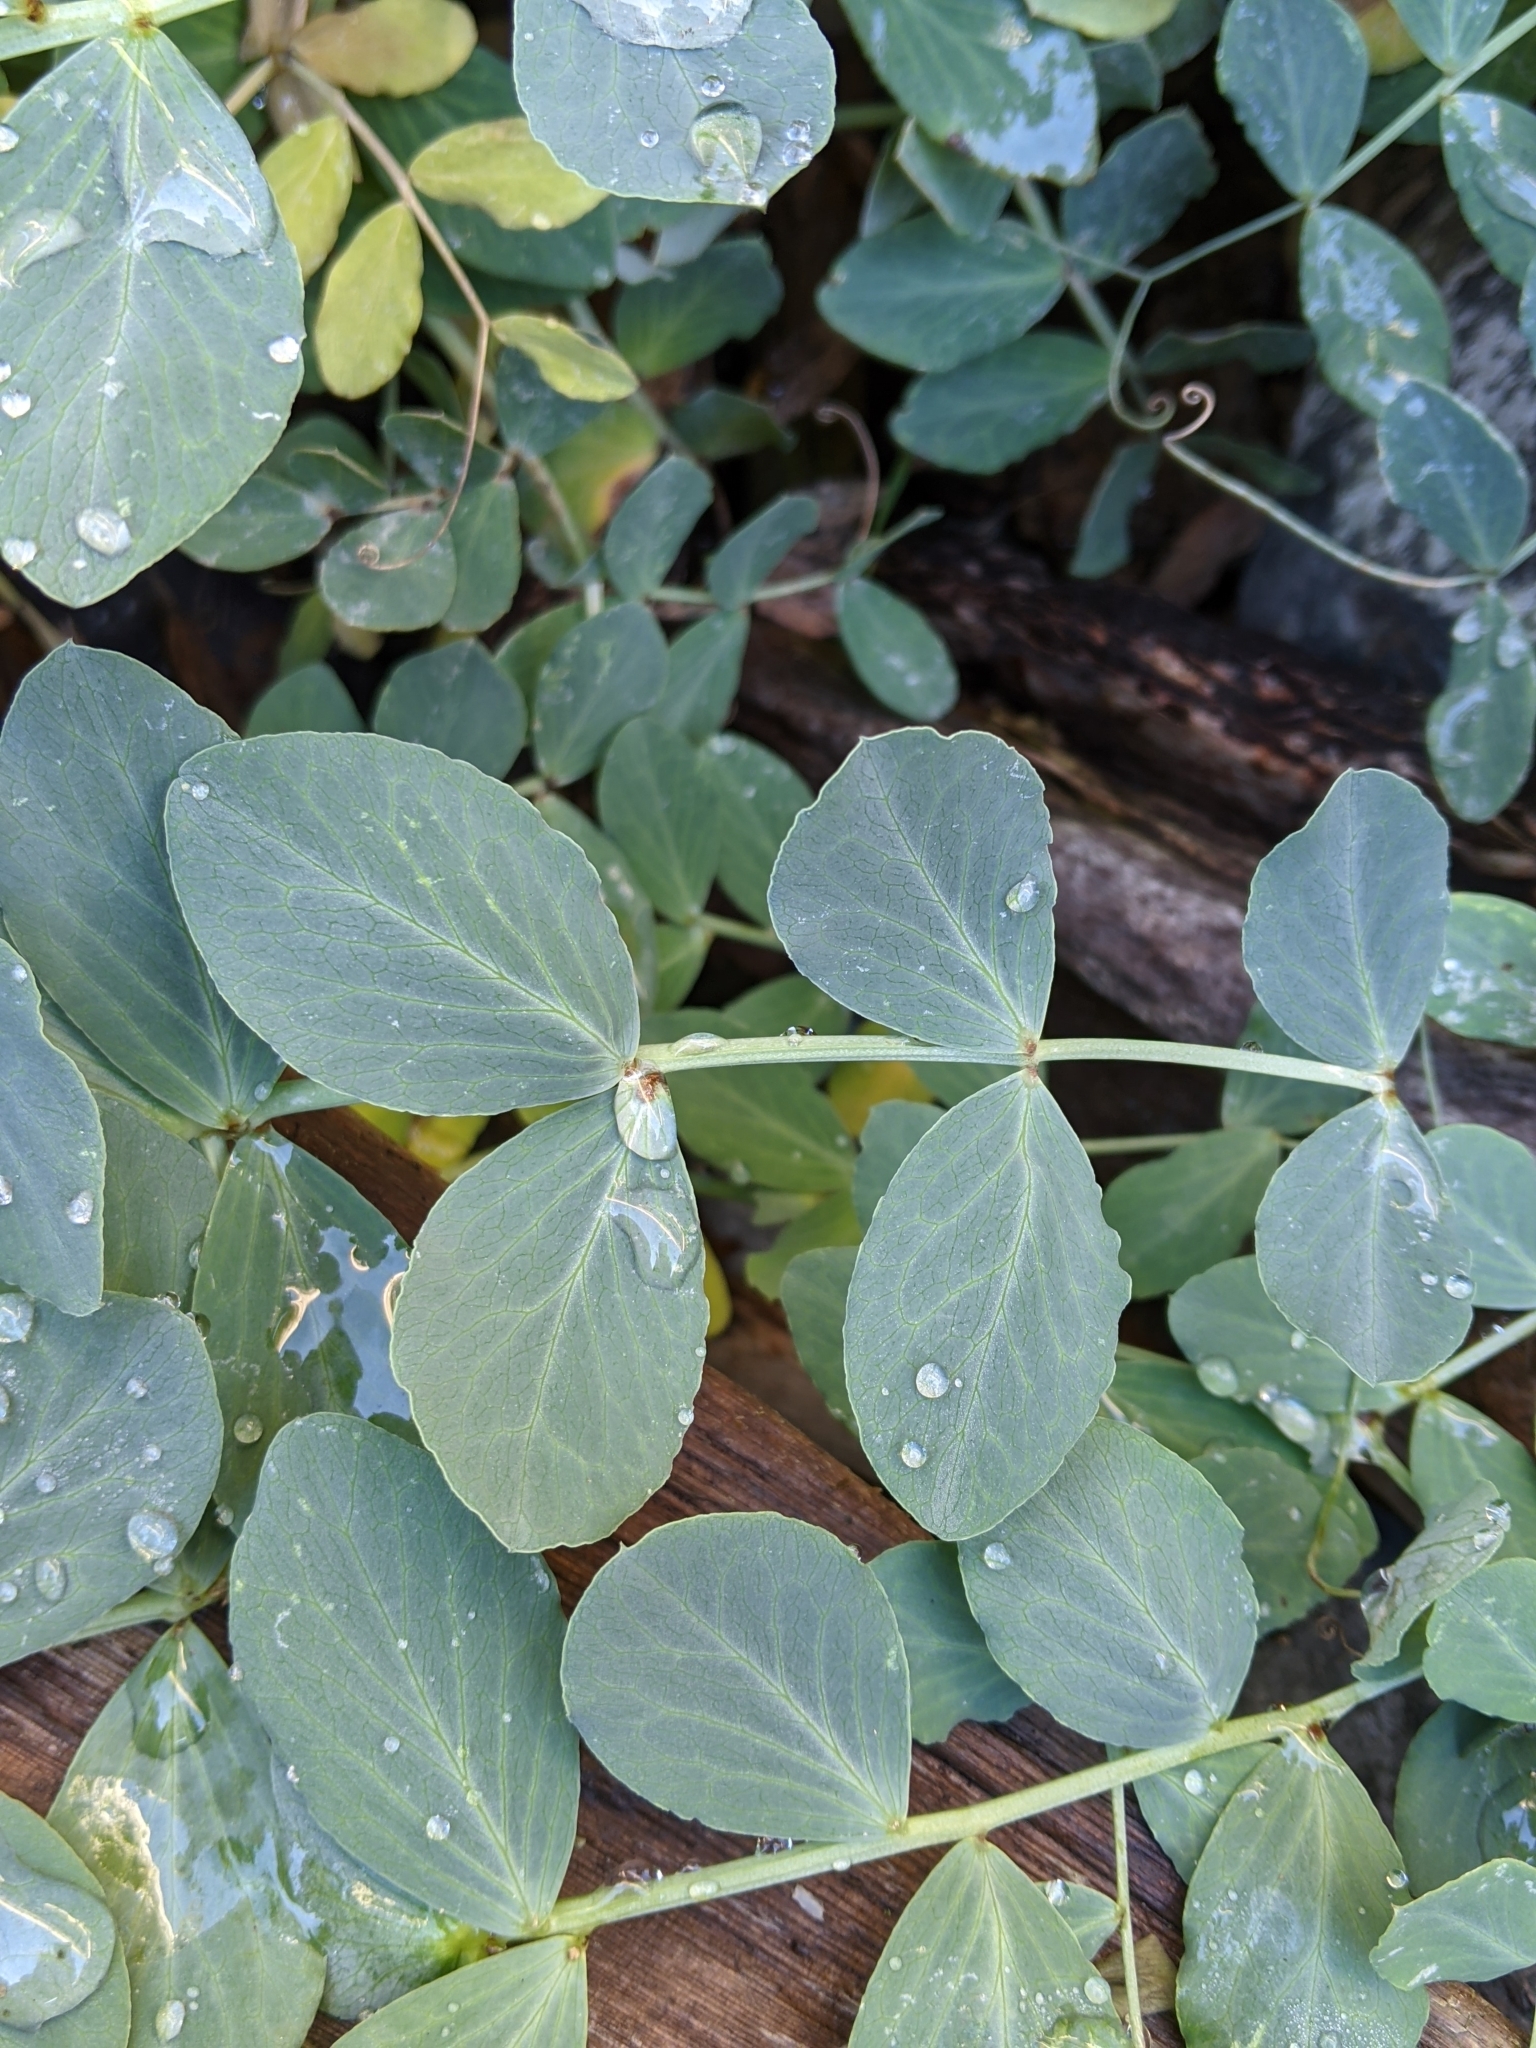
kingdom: Plantae
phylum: Tracheophyta
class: Magnoliopsida
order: Fabales
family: Fabaceae
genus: Lathyrus
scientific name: Lathyrus japonicus
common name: Sea pea
